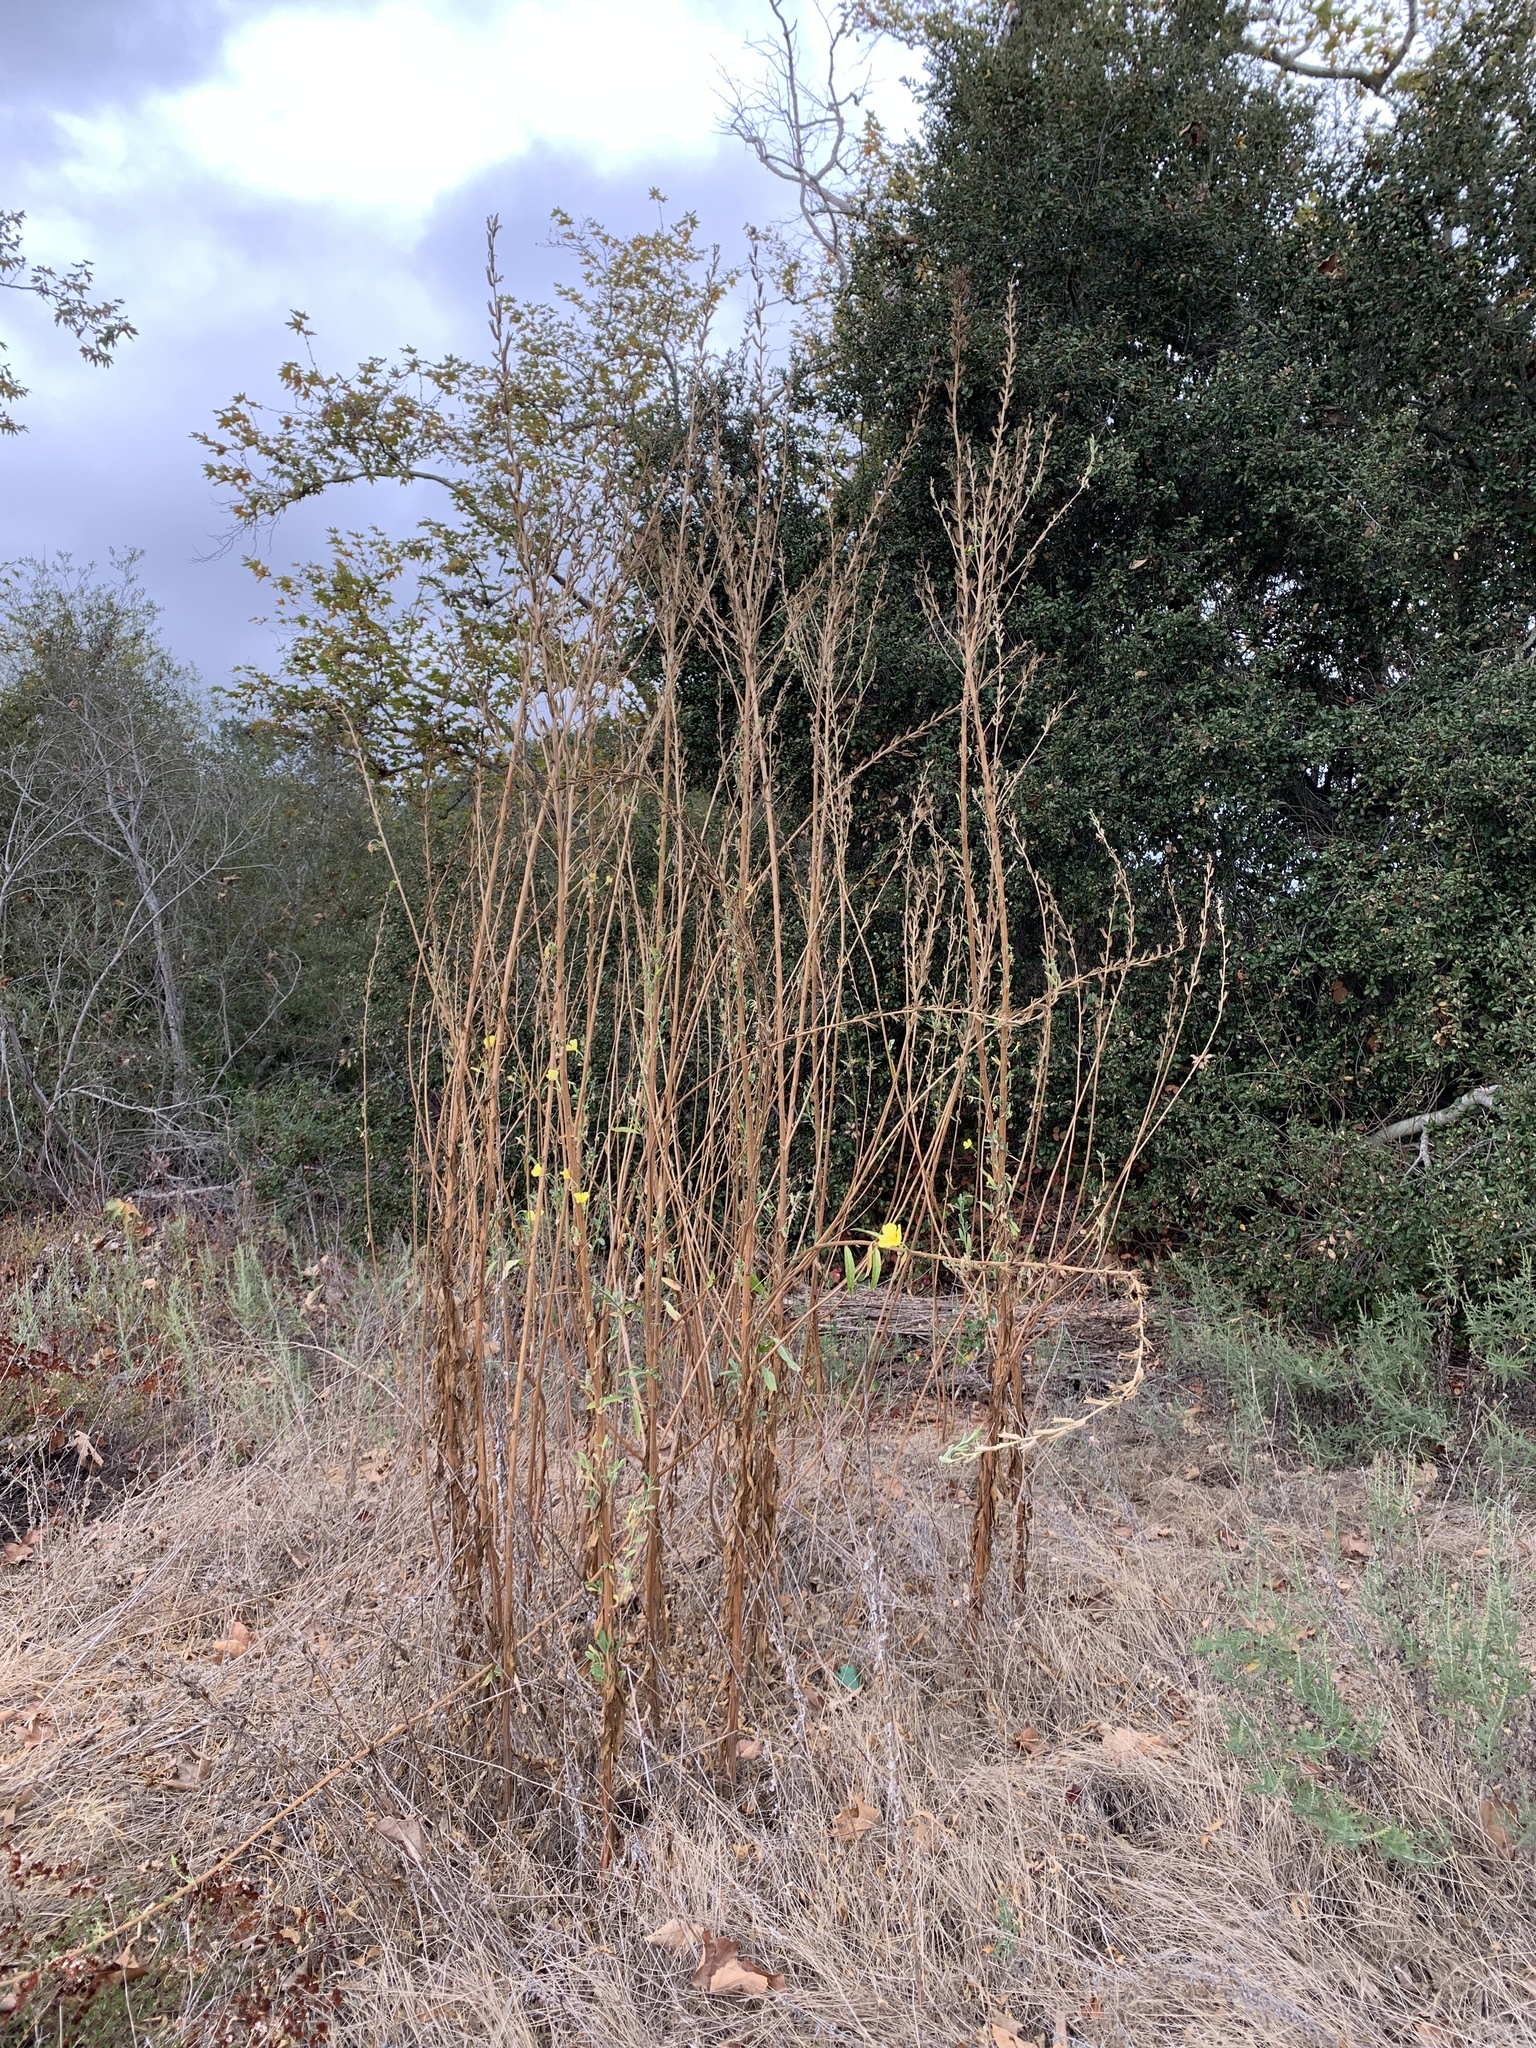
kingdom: Plantae
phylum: Tracheophyta
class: Magnoliopsida
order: Myrtales
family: Onagraceae
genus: Oenothera
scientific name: Oenothera elata
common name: Hooker's evening-primrose
